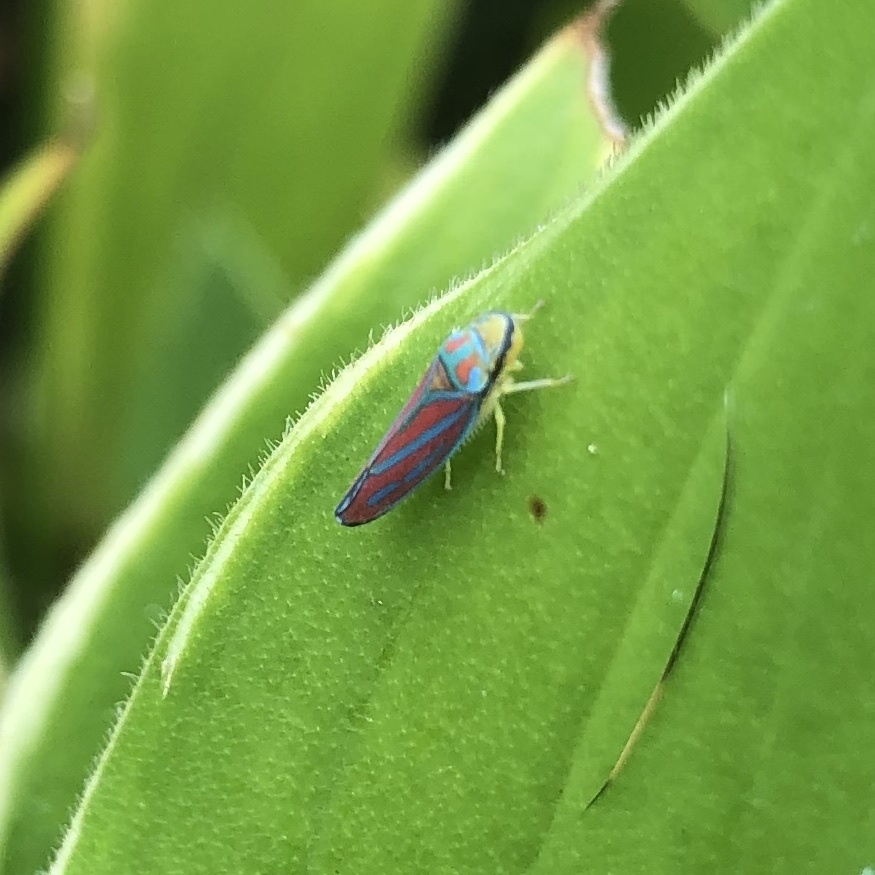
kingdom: Animalia
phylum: Arthropoda
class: Insecta
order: Hemiptera
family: Cicadellidae
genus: Graphocephala
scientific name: Graphocephala coccinea
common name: Candy-striped leafhopper
